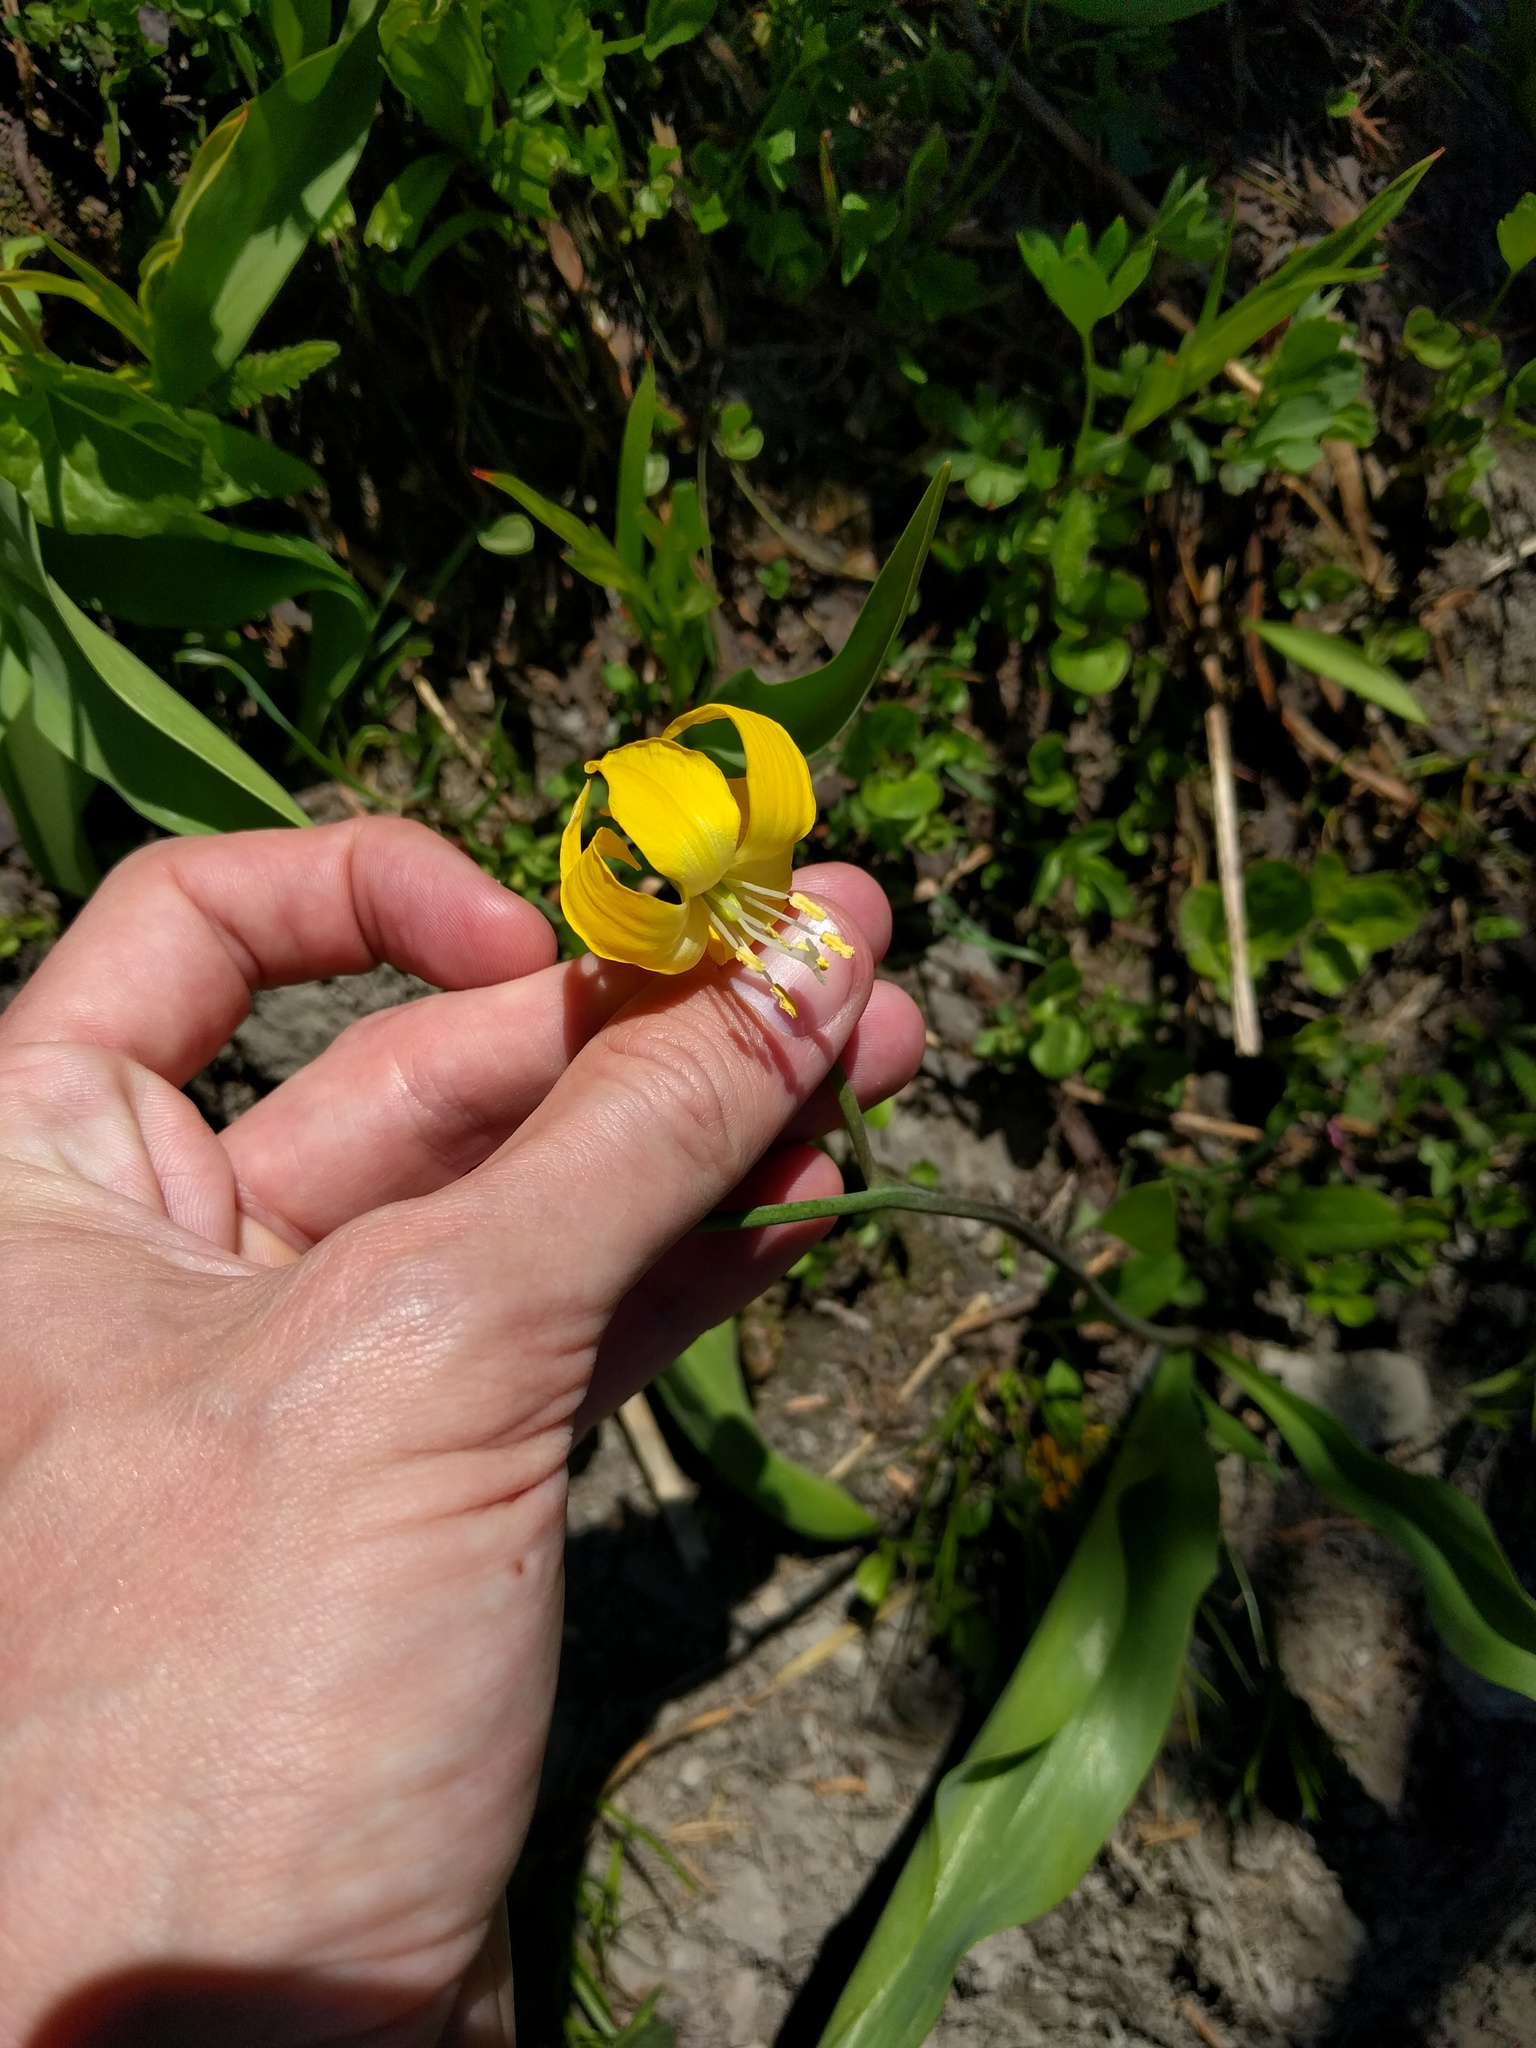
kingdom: Plantae
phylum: Tracheophyta
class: Liliopsida
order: Liliales
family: Liliaceae
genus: Erythronium
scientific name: Erythronium grandiflorum
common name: Avalanche-lily
